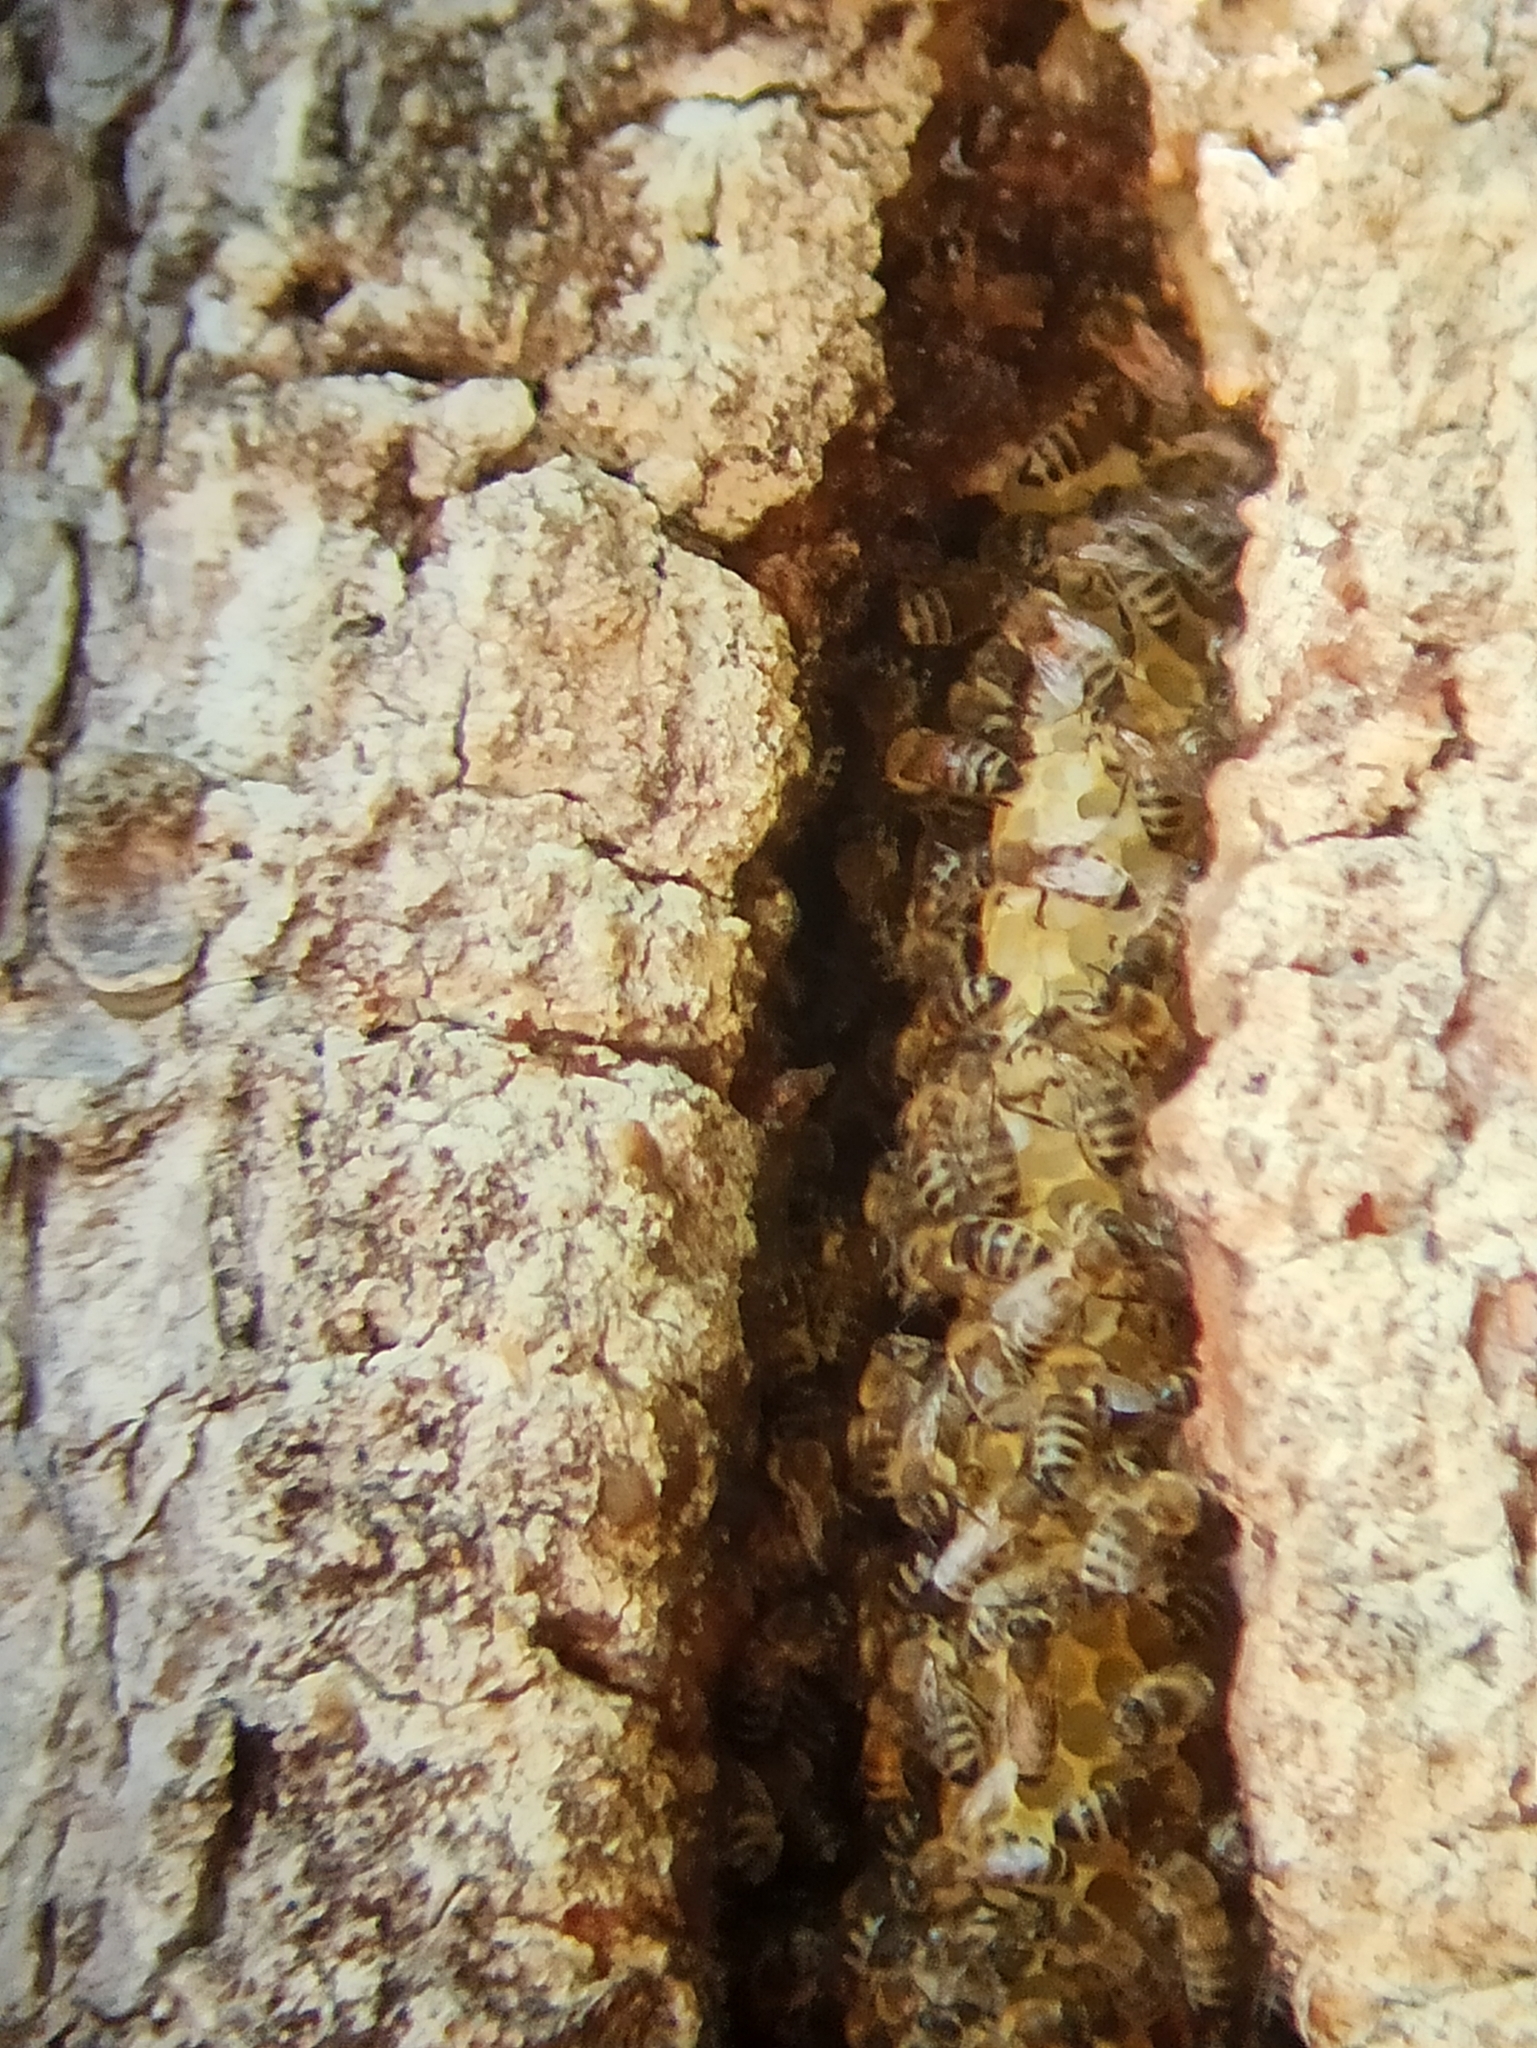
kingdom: Animalia
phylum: Arthropoda
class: Insecta
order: Hymenoptera
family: Apidae
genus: Apis
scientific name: Apis mellifera
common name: Honey bee
